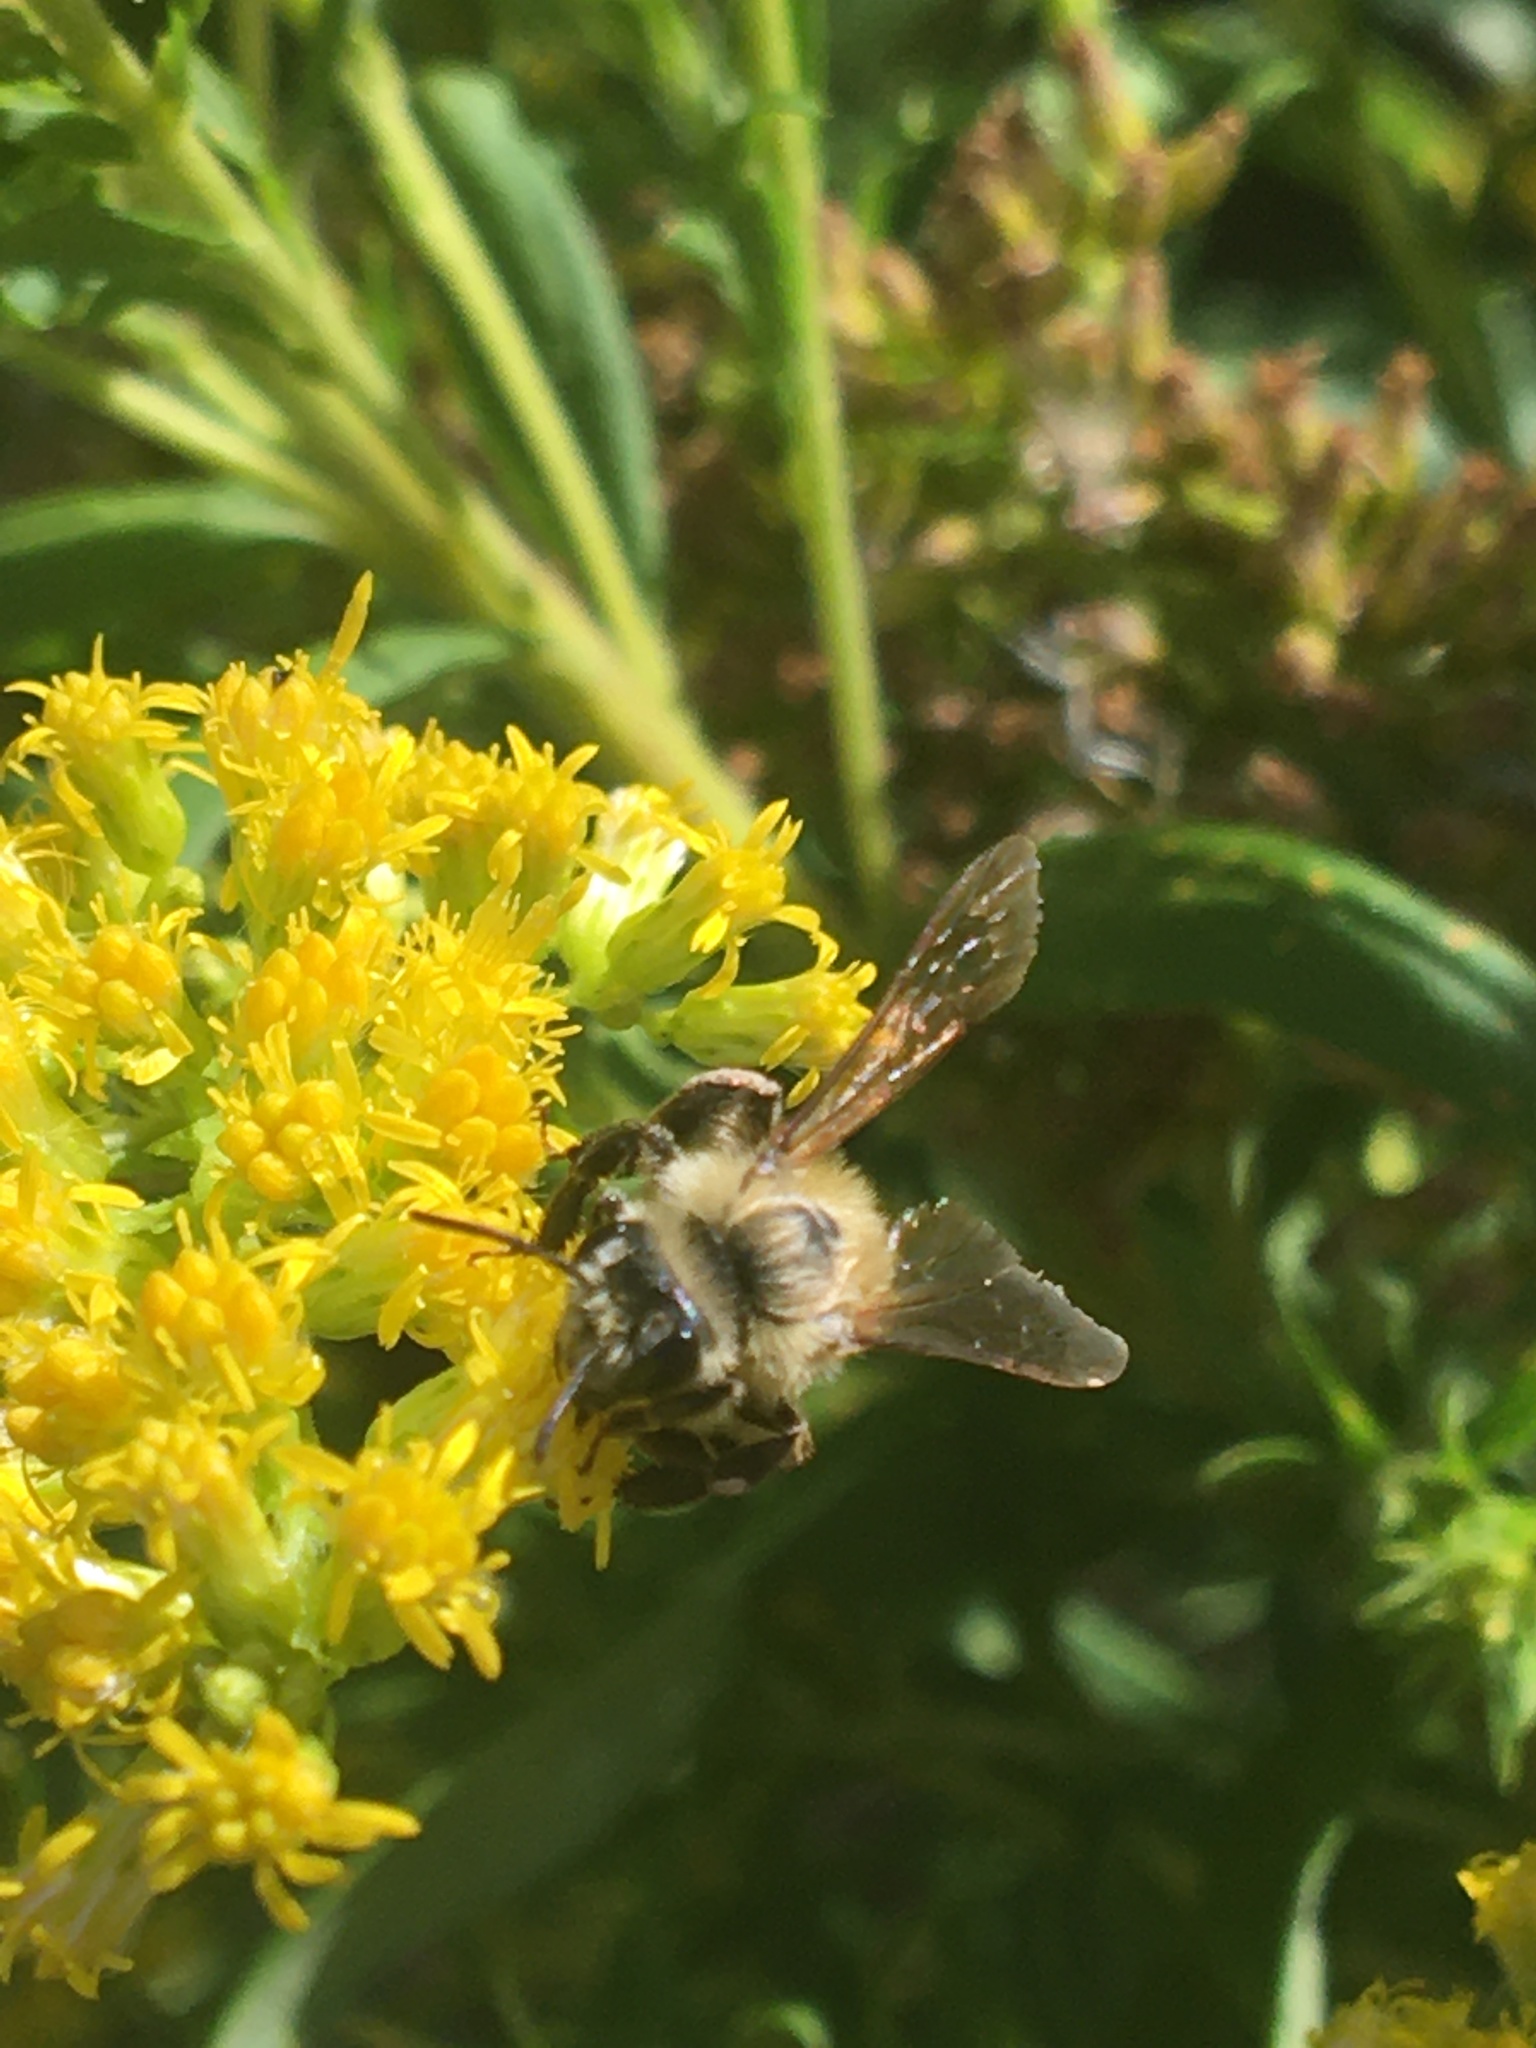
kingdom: Animalia
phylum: Arthropoda
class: Insecta
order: Hymenoptera
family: Andrenidae
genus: Andrena
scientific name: Andrena hirticincta
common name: Hairy-banded mining bee
